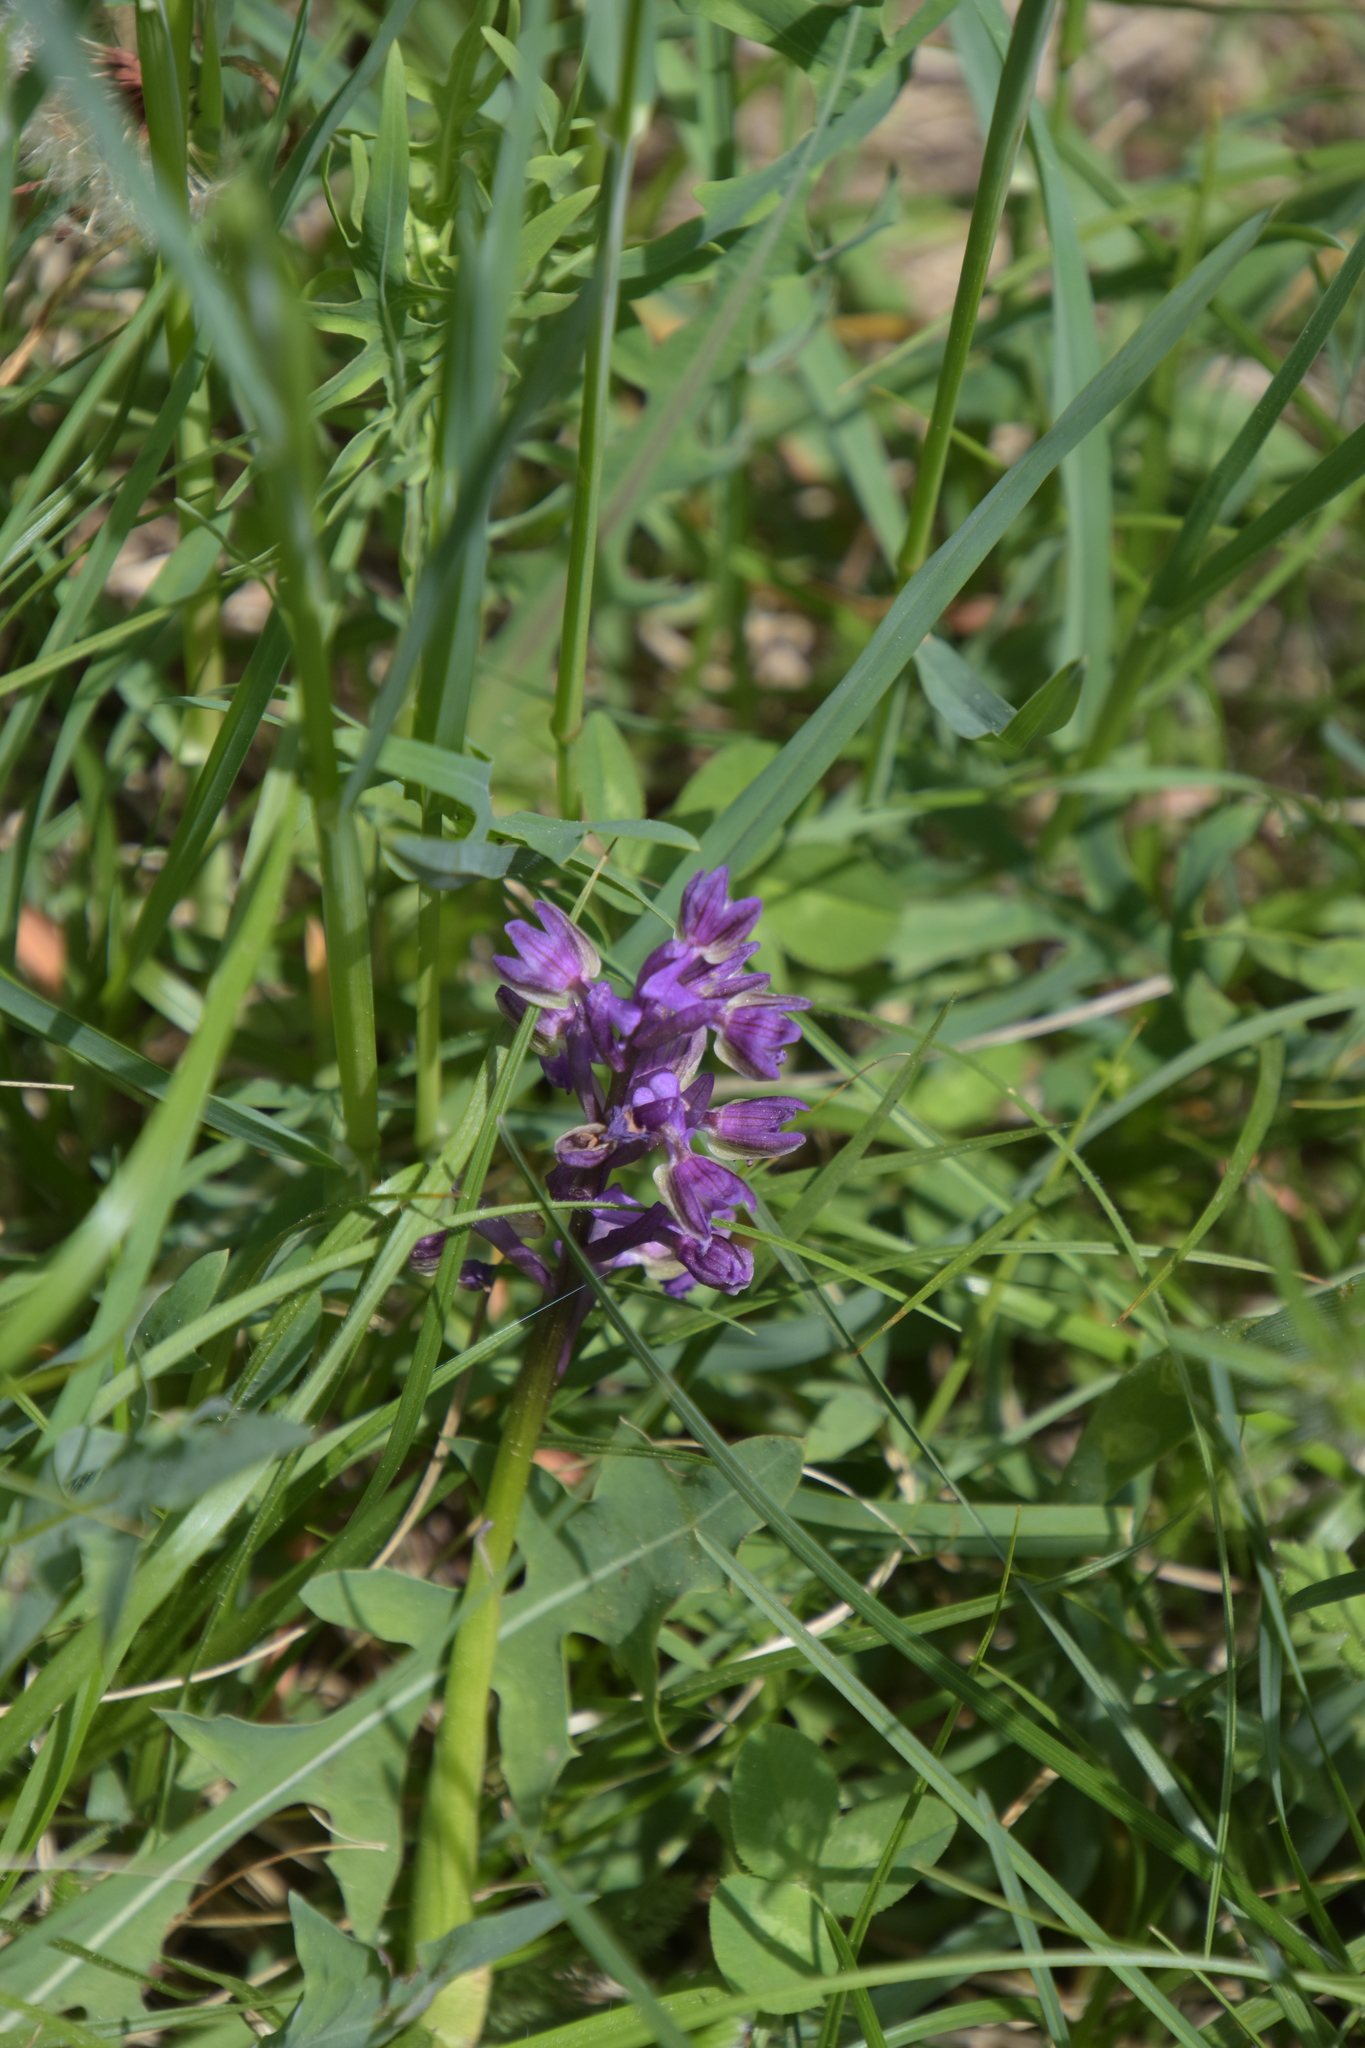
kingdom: Plantae
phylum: Tracheophyta
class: Liliopsida
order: Asparagales
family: Orchidaceae
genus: Anacamptis
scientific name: Anacamptis morio
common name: Green-winged orchid
